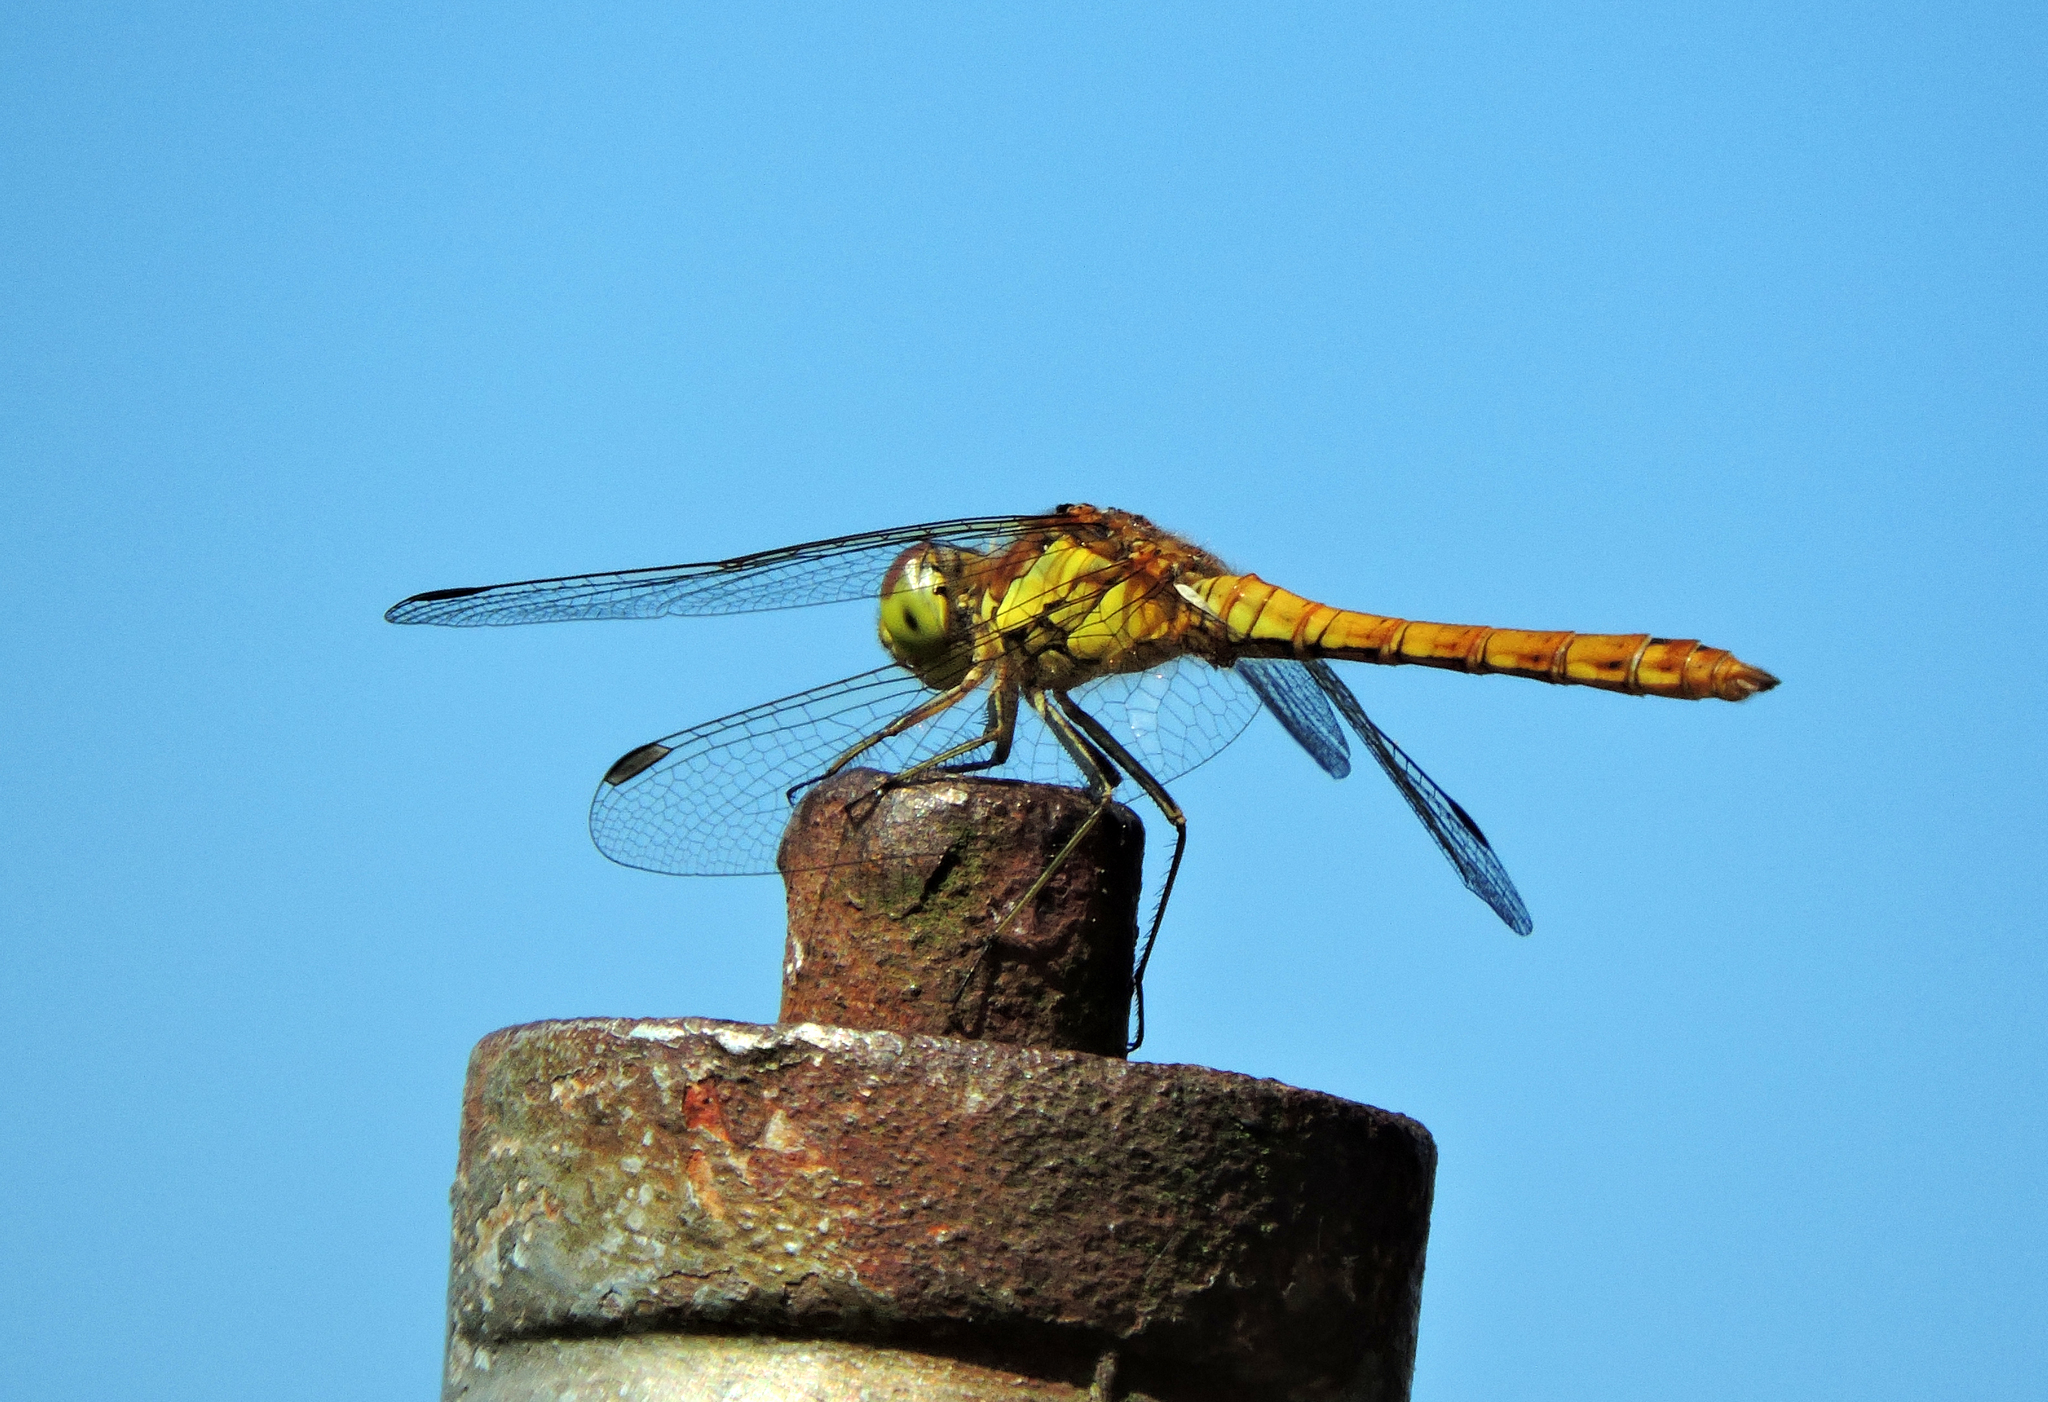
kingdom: Animalia
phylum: Arthropoda
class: Insecta
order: Odonata
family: Libellulidae
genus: Sympetrum
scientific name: Sympetrum striolatum
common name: Common darter
